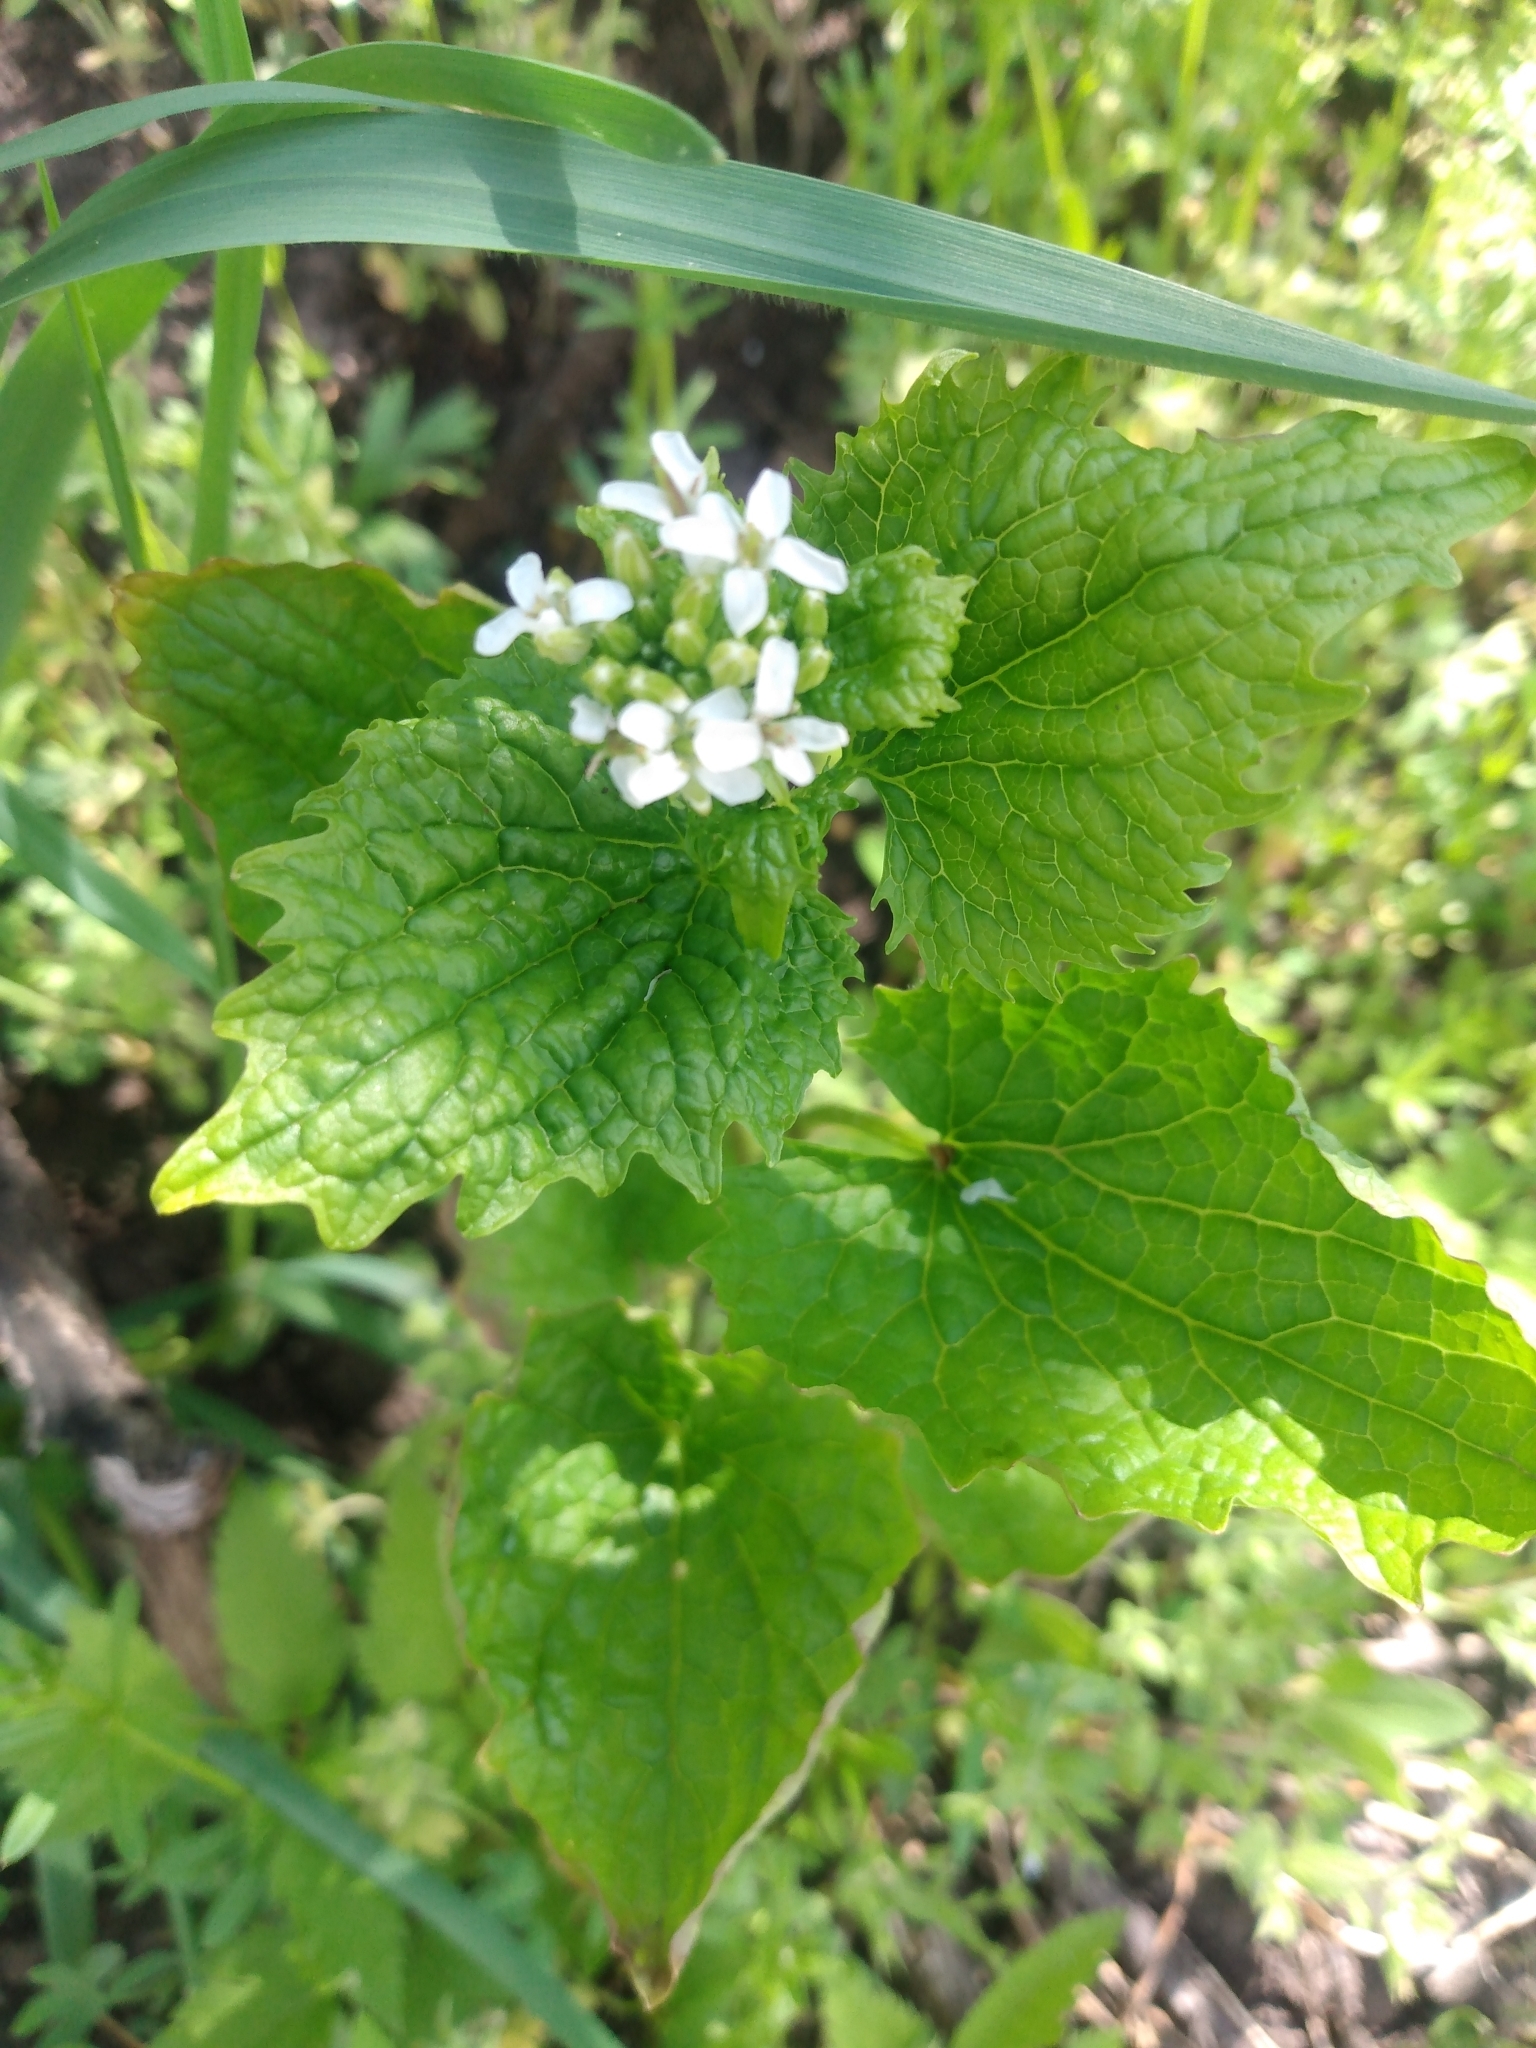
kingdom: Plantae
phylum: Tracheophyta
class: Magnoliopsida
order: Brassicales
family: Brassicaceae
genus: Alliaria
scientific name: Alliaria petiolata
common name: Garlic mustard
